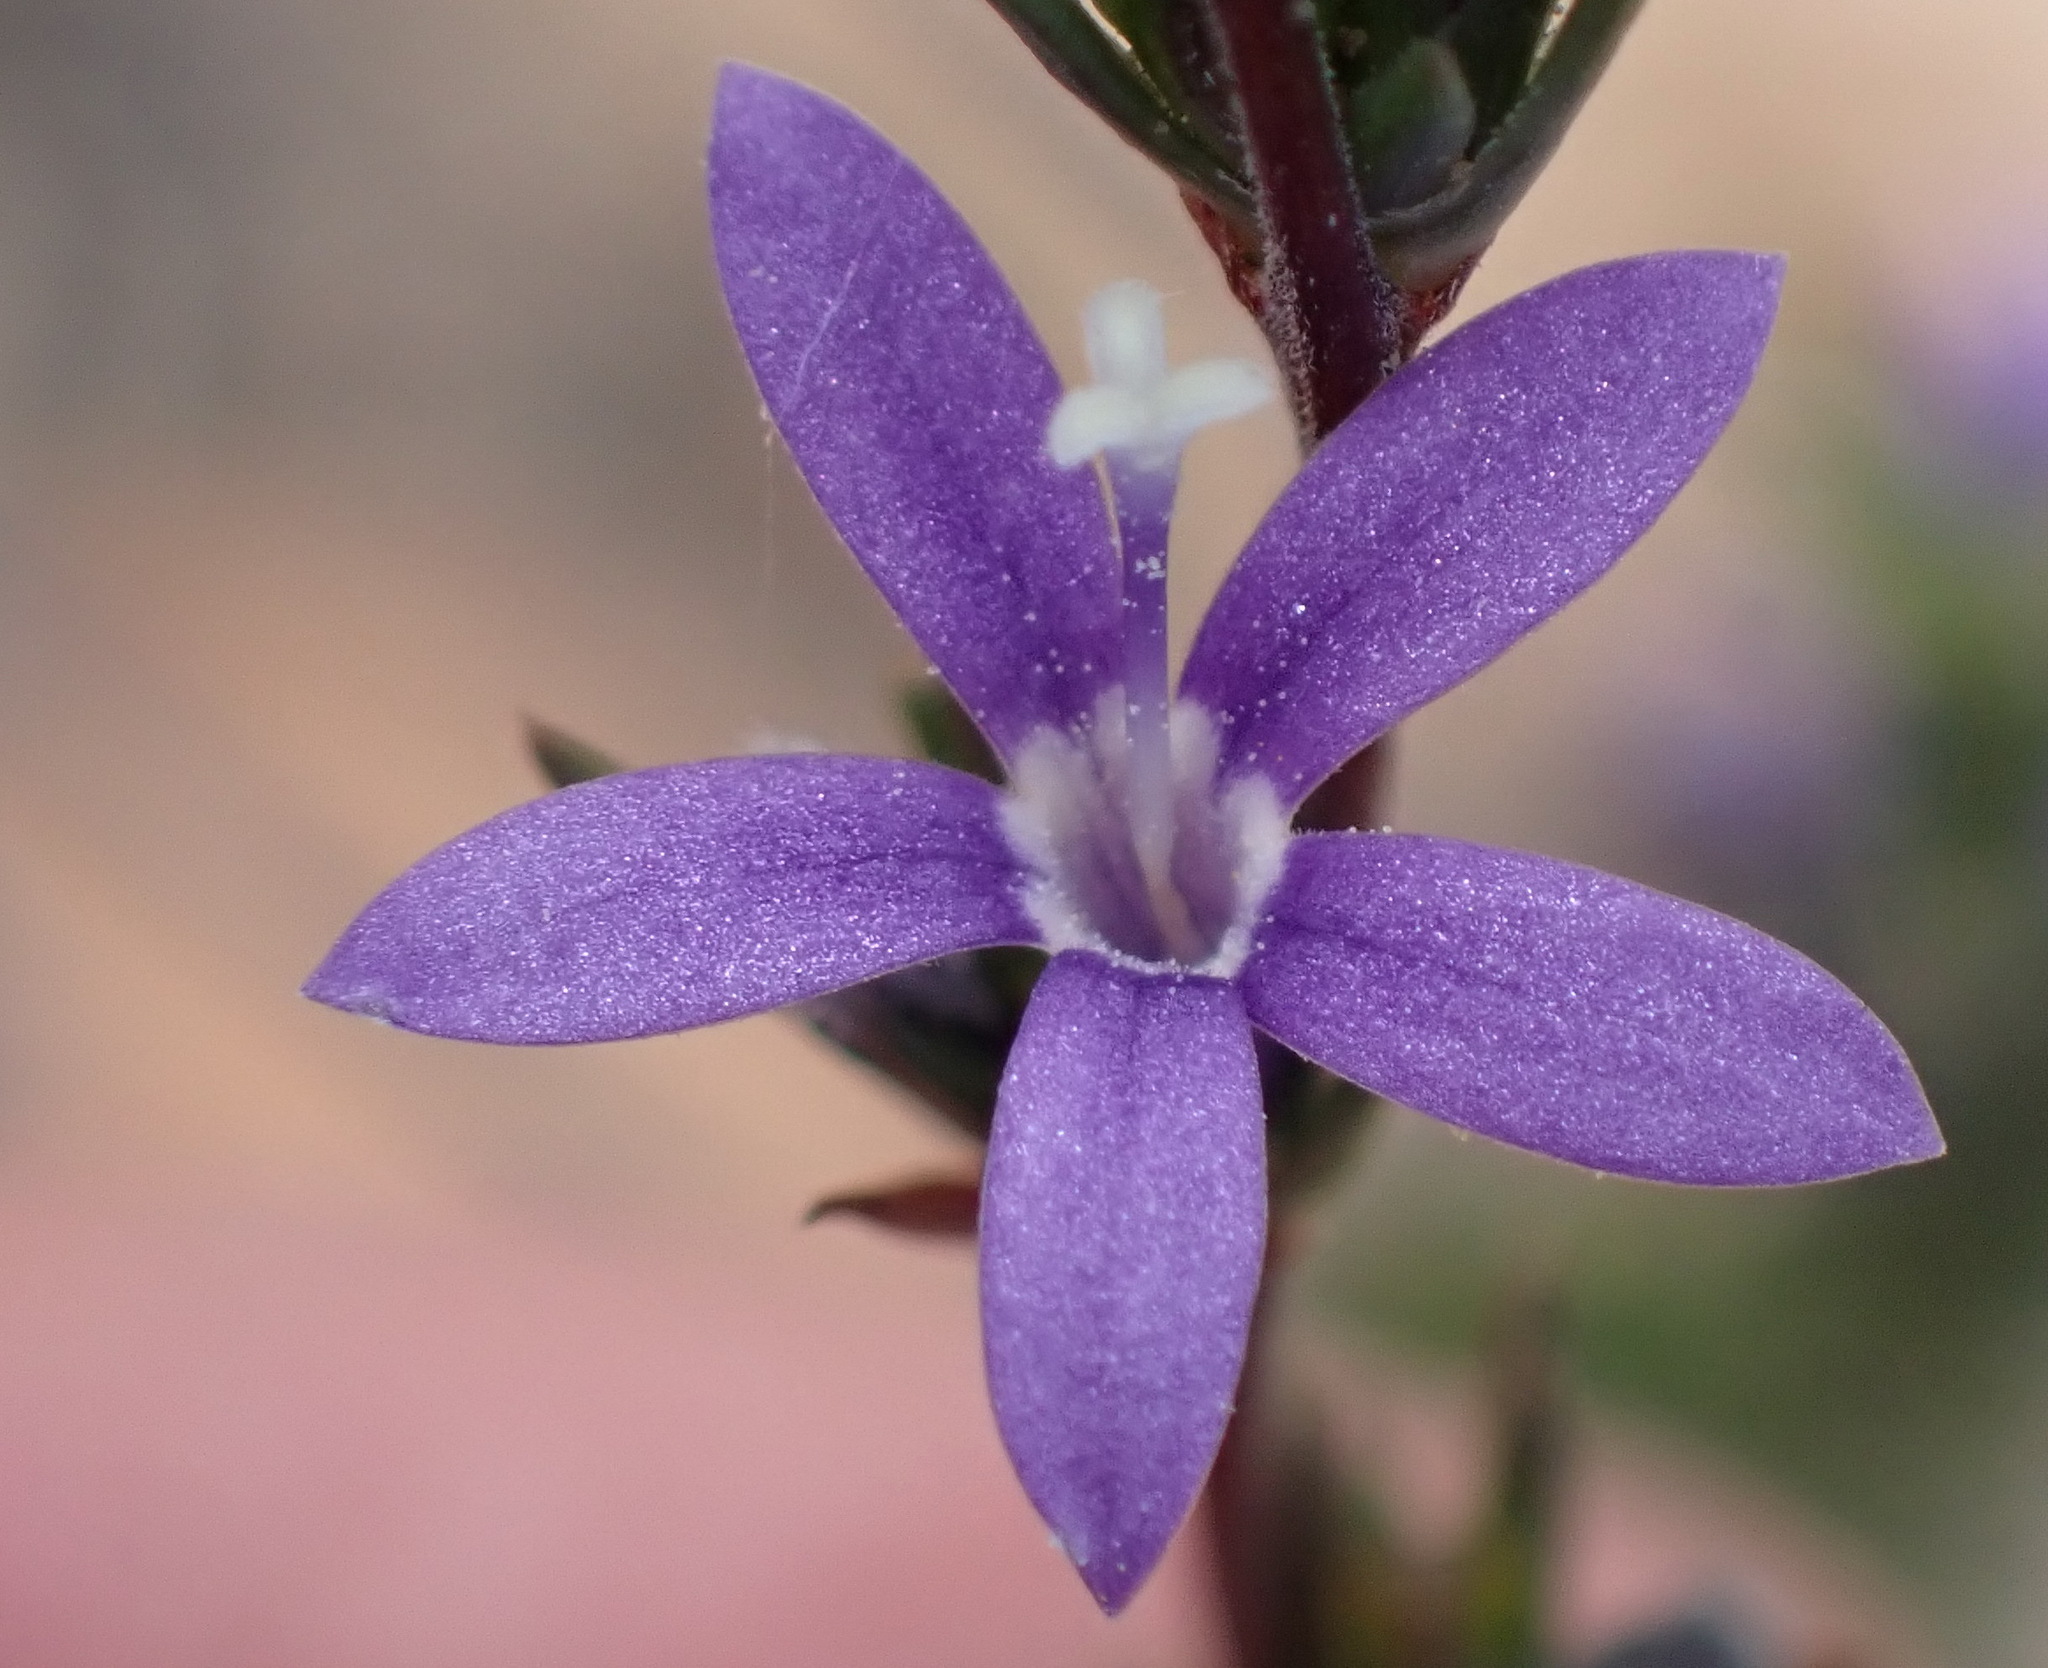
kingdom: Plantae
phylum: Tracheophyta
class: Magnoliopsida
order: Asterales
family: Campanulaceae
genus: Theilera
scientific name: Theilera guthriei
